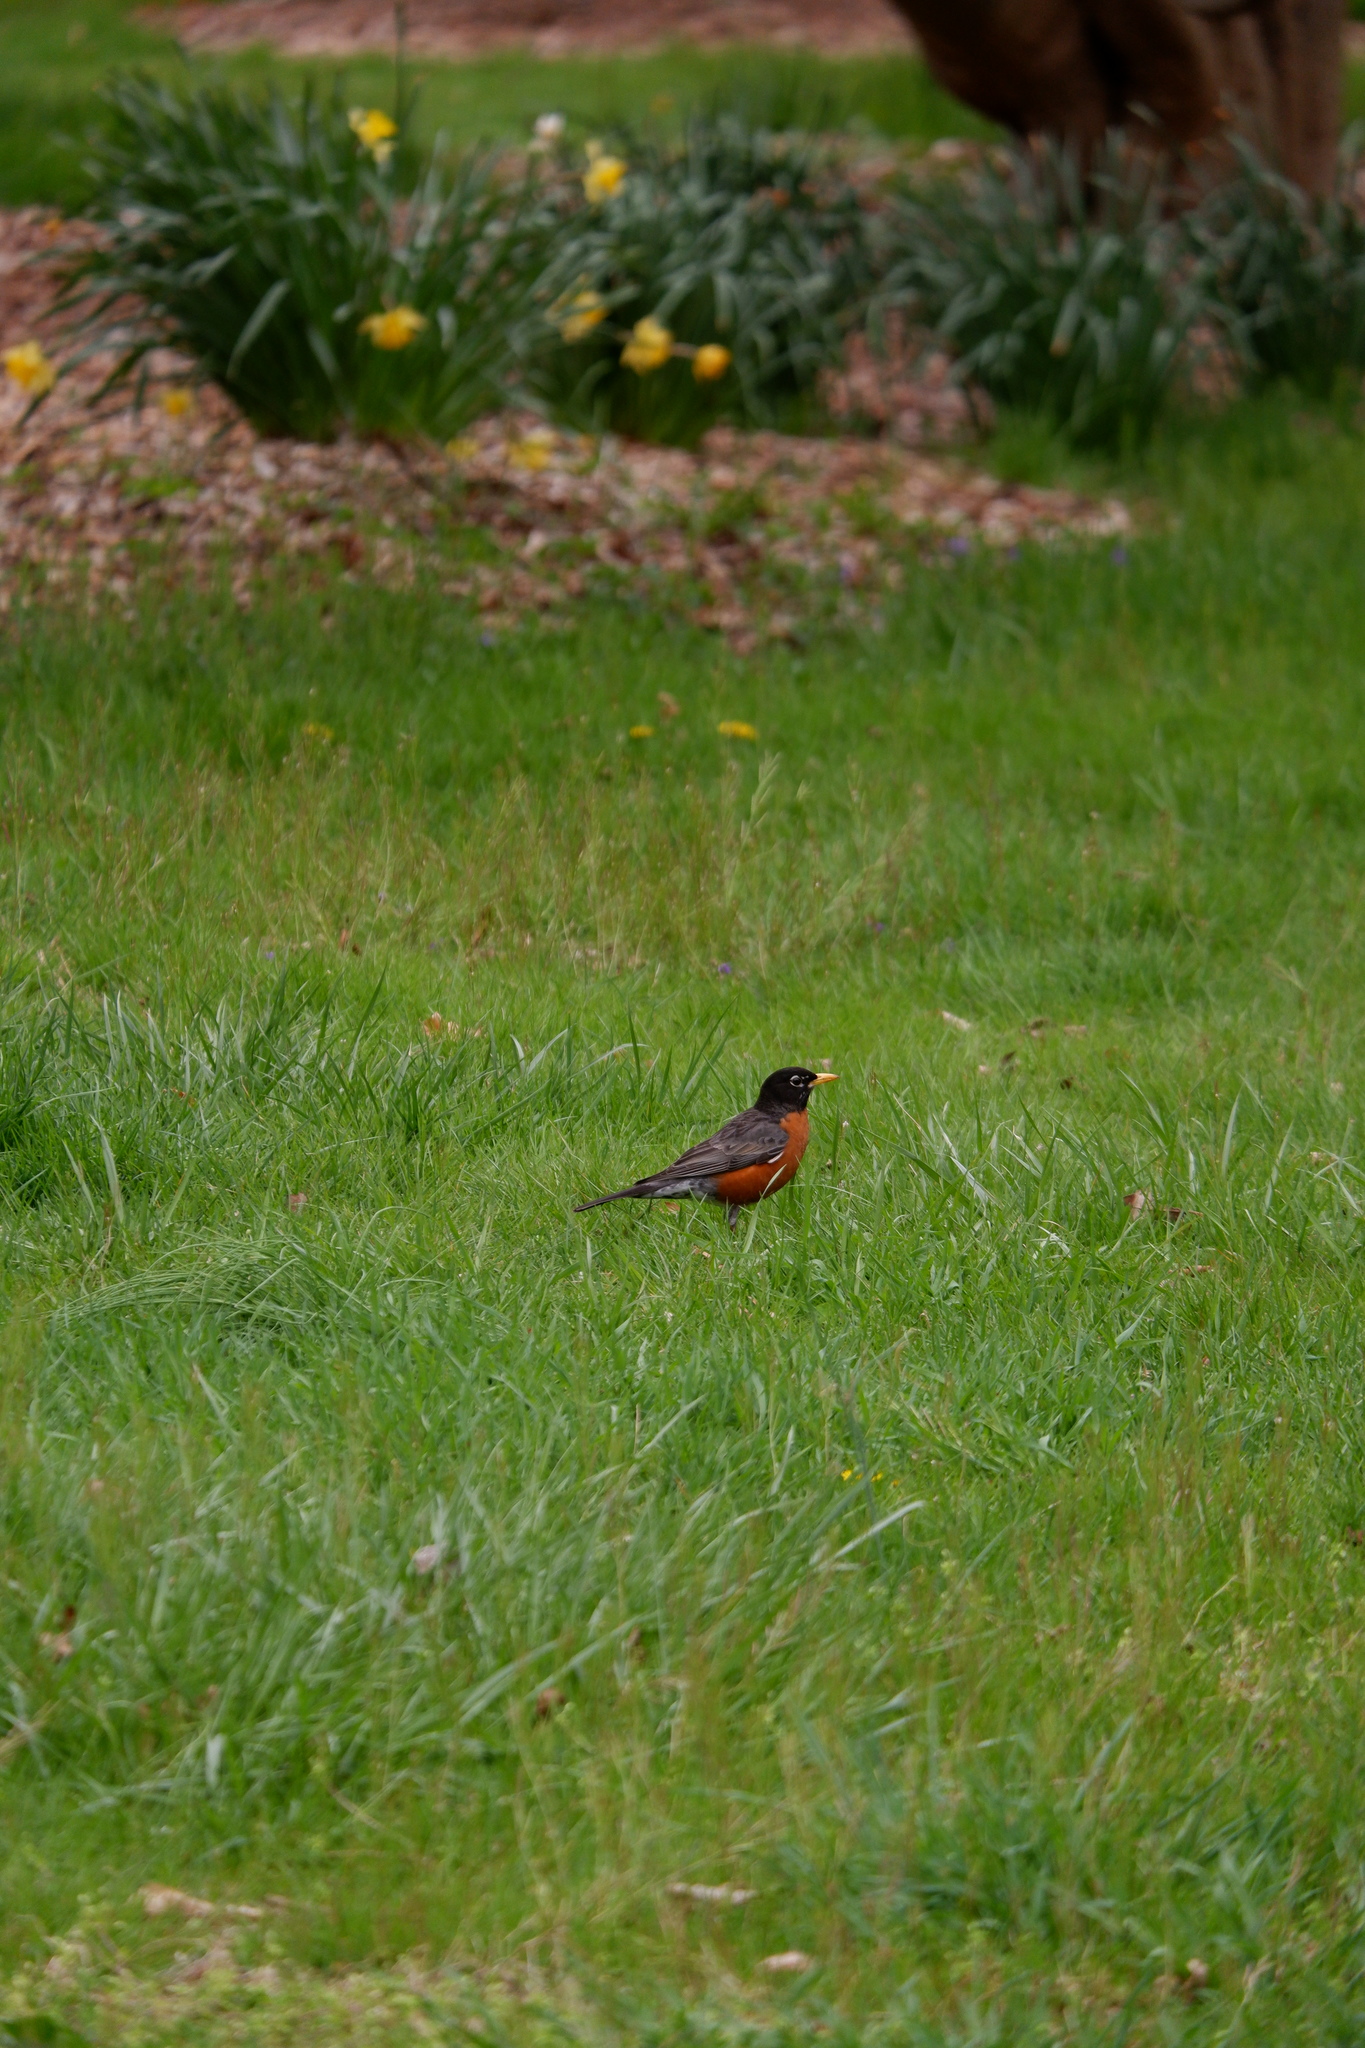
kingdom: Animalia
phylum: Chordata
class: Aves
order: Passeriformes
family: Turdidae
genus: Turdus
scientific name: Turdus migratorius
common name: American robin
